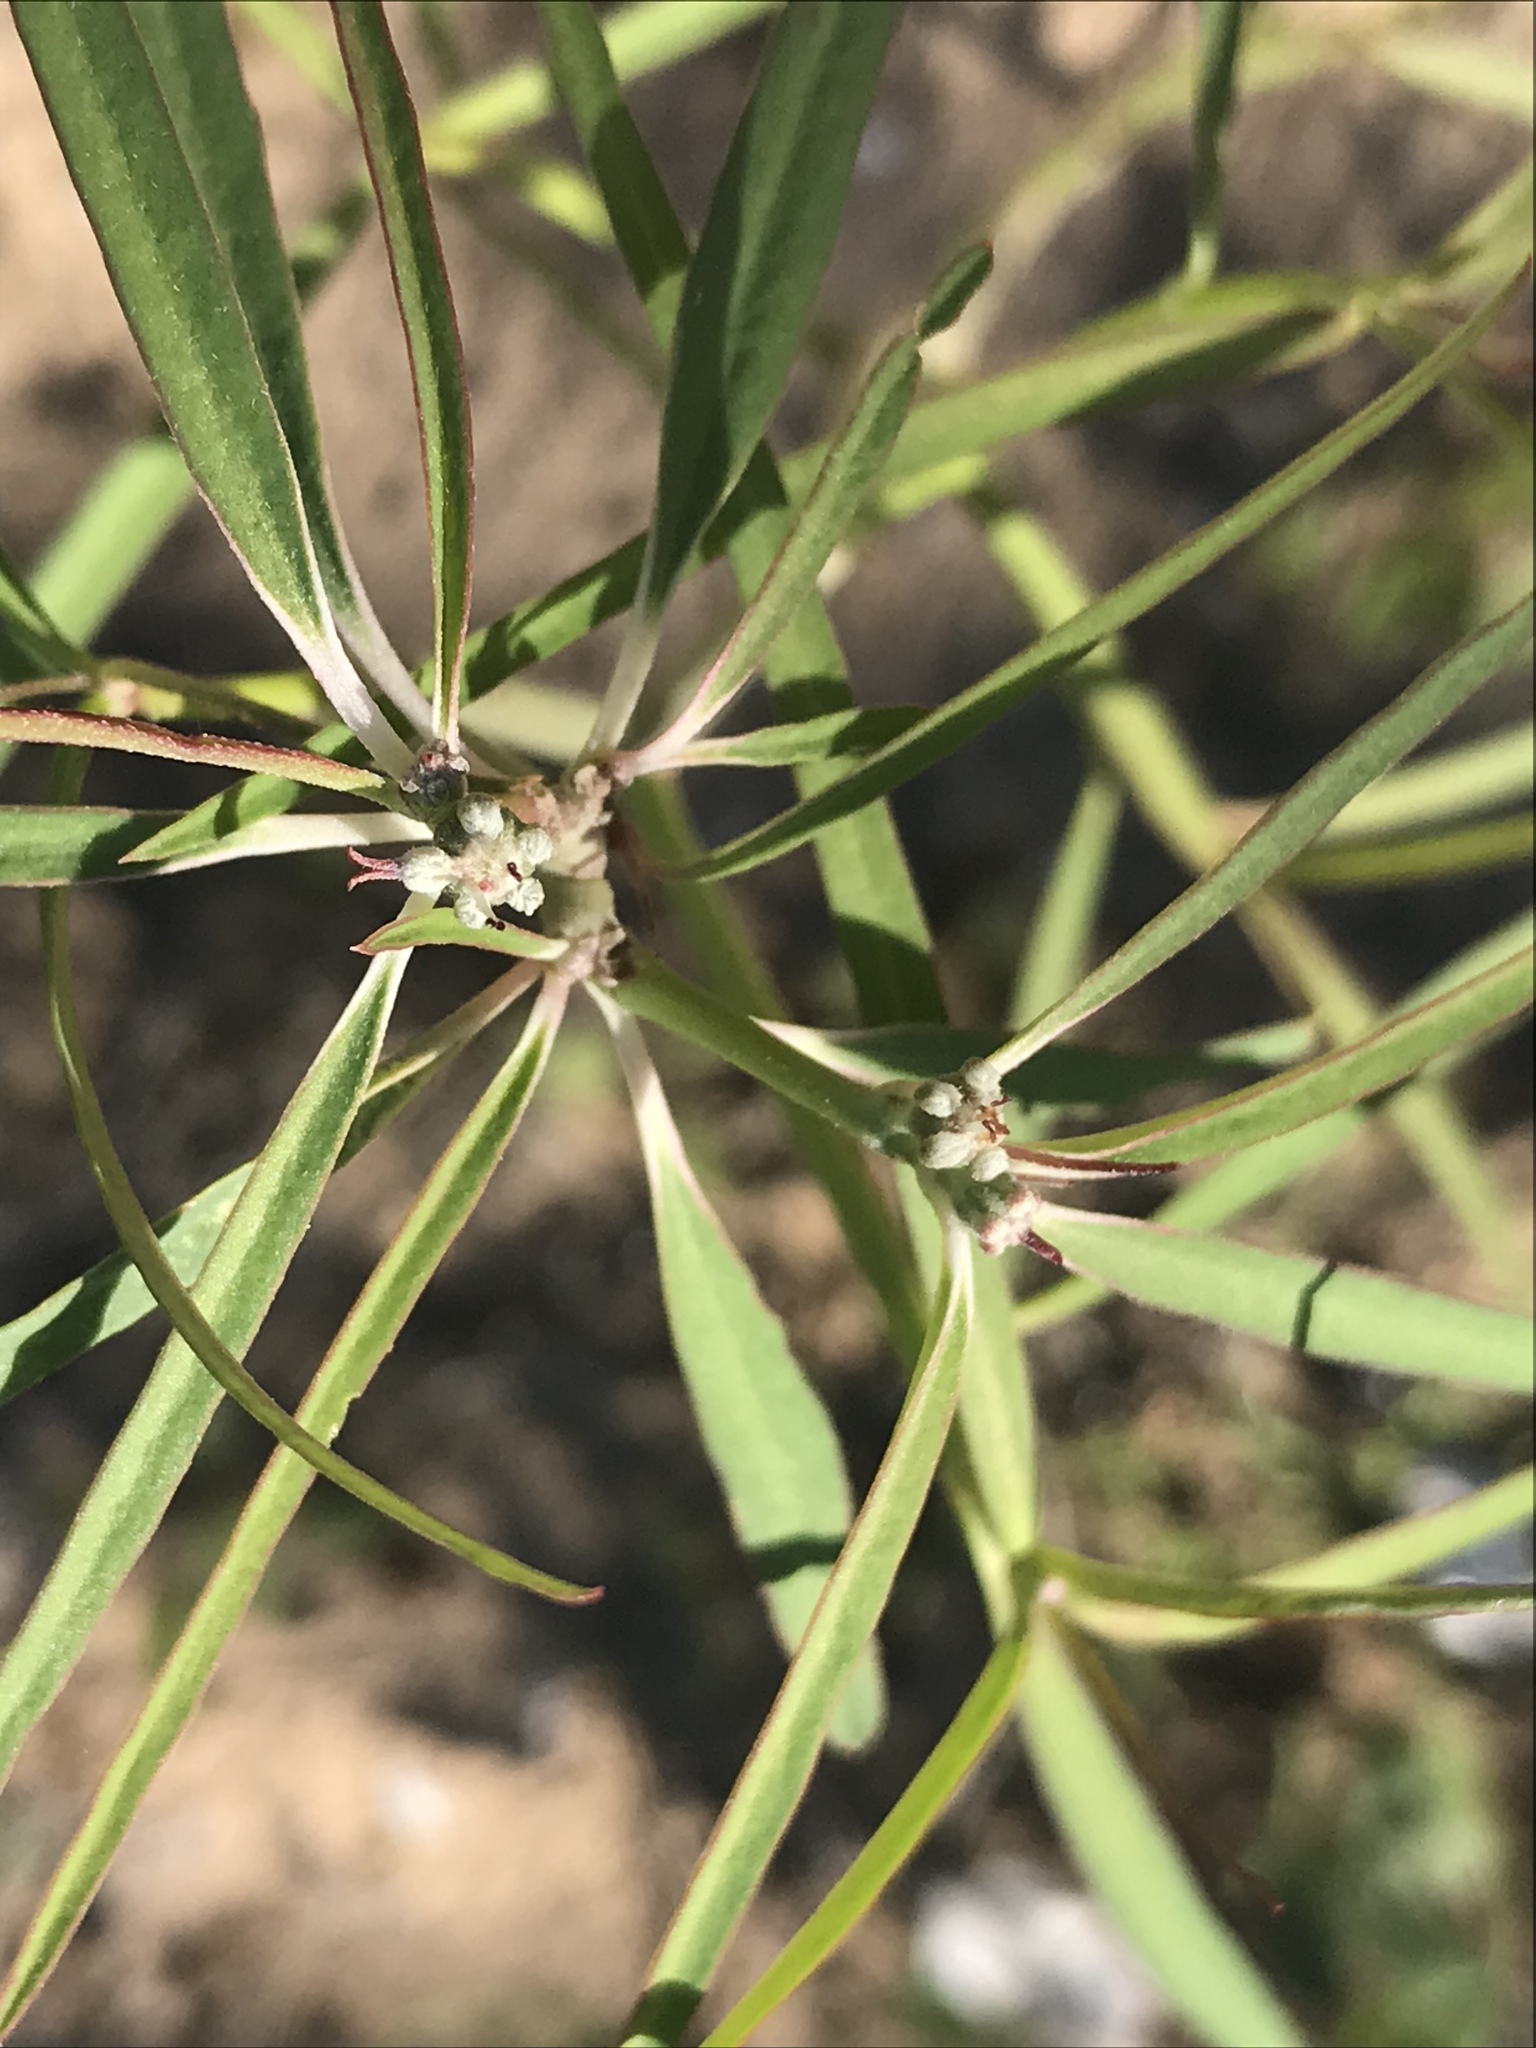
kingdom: Plantae
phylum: Tracheophyta
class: Magnoliopsida
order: Malpighiales
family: Euphorbiaceae
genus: Euphorbia
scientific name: Euphorbia eriantha
